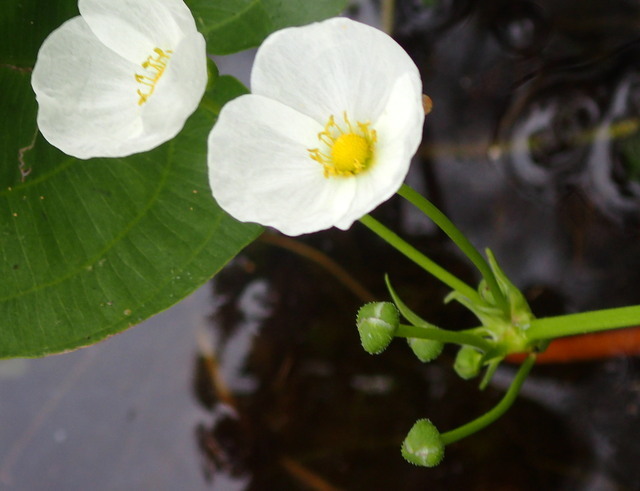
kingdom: Plantae
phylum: Tracheophyta
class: Liliopsida
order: Alismatales
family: Alismataceae
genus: Aquarius
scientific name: Aquarius cordifolius
